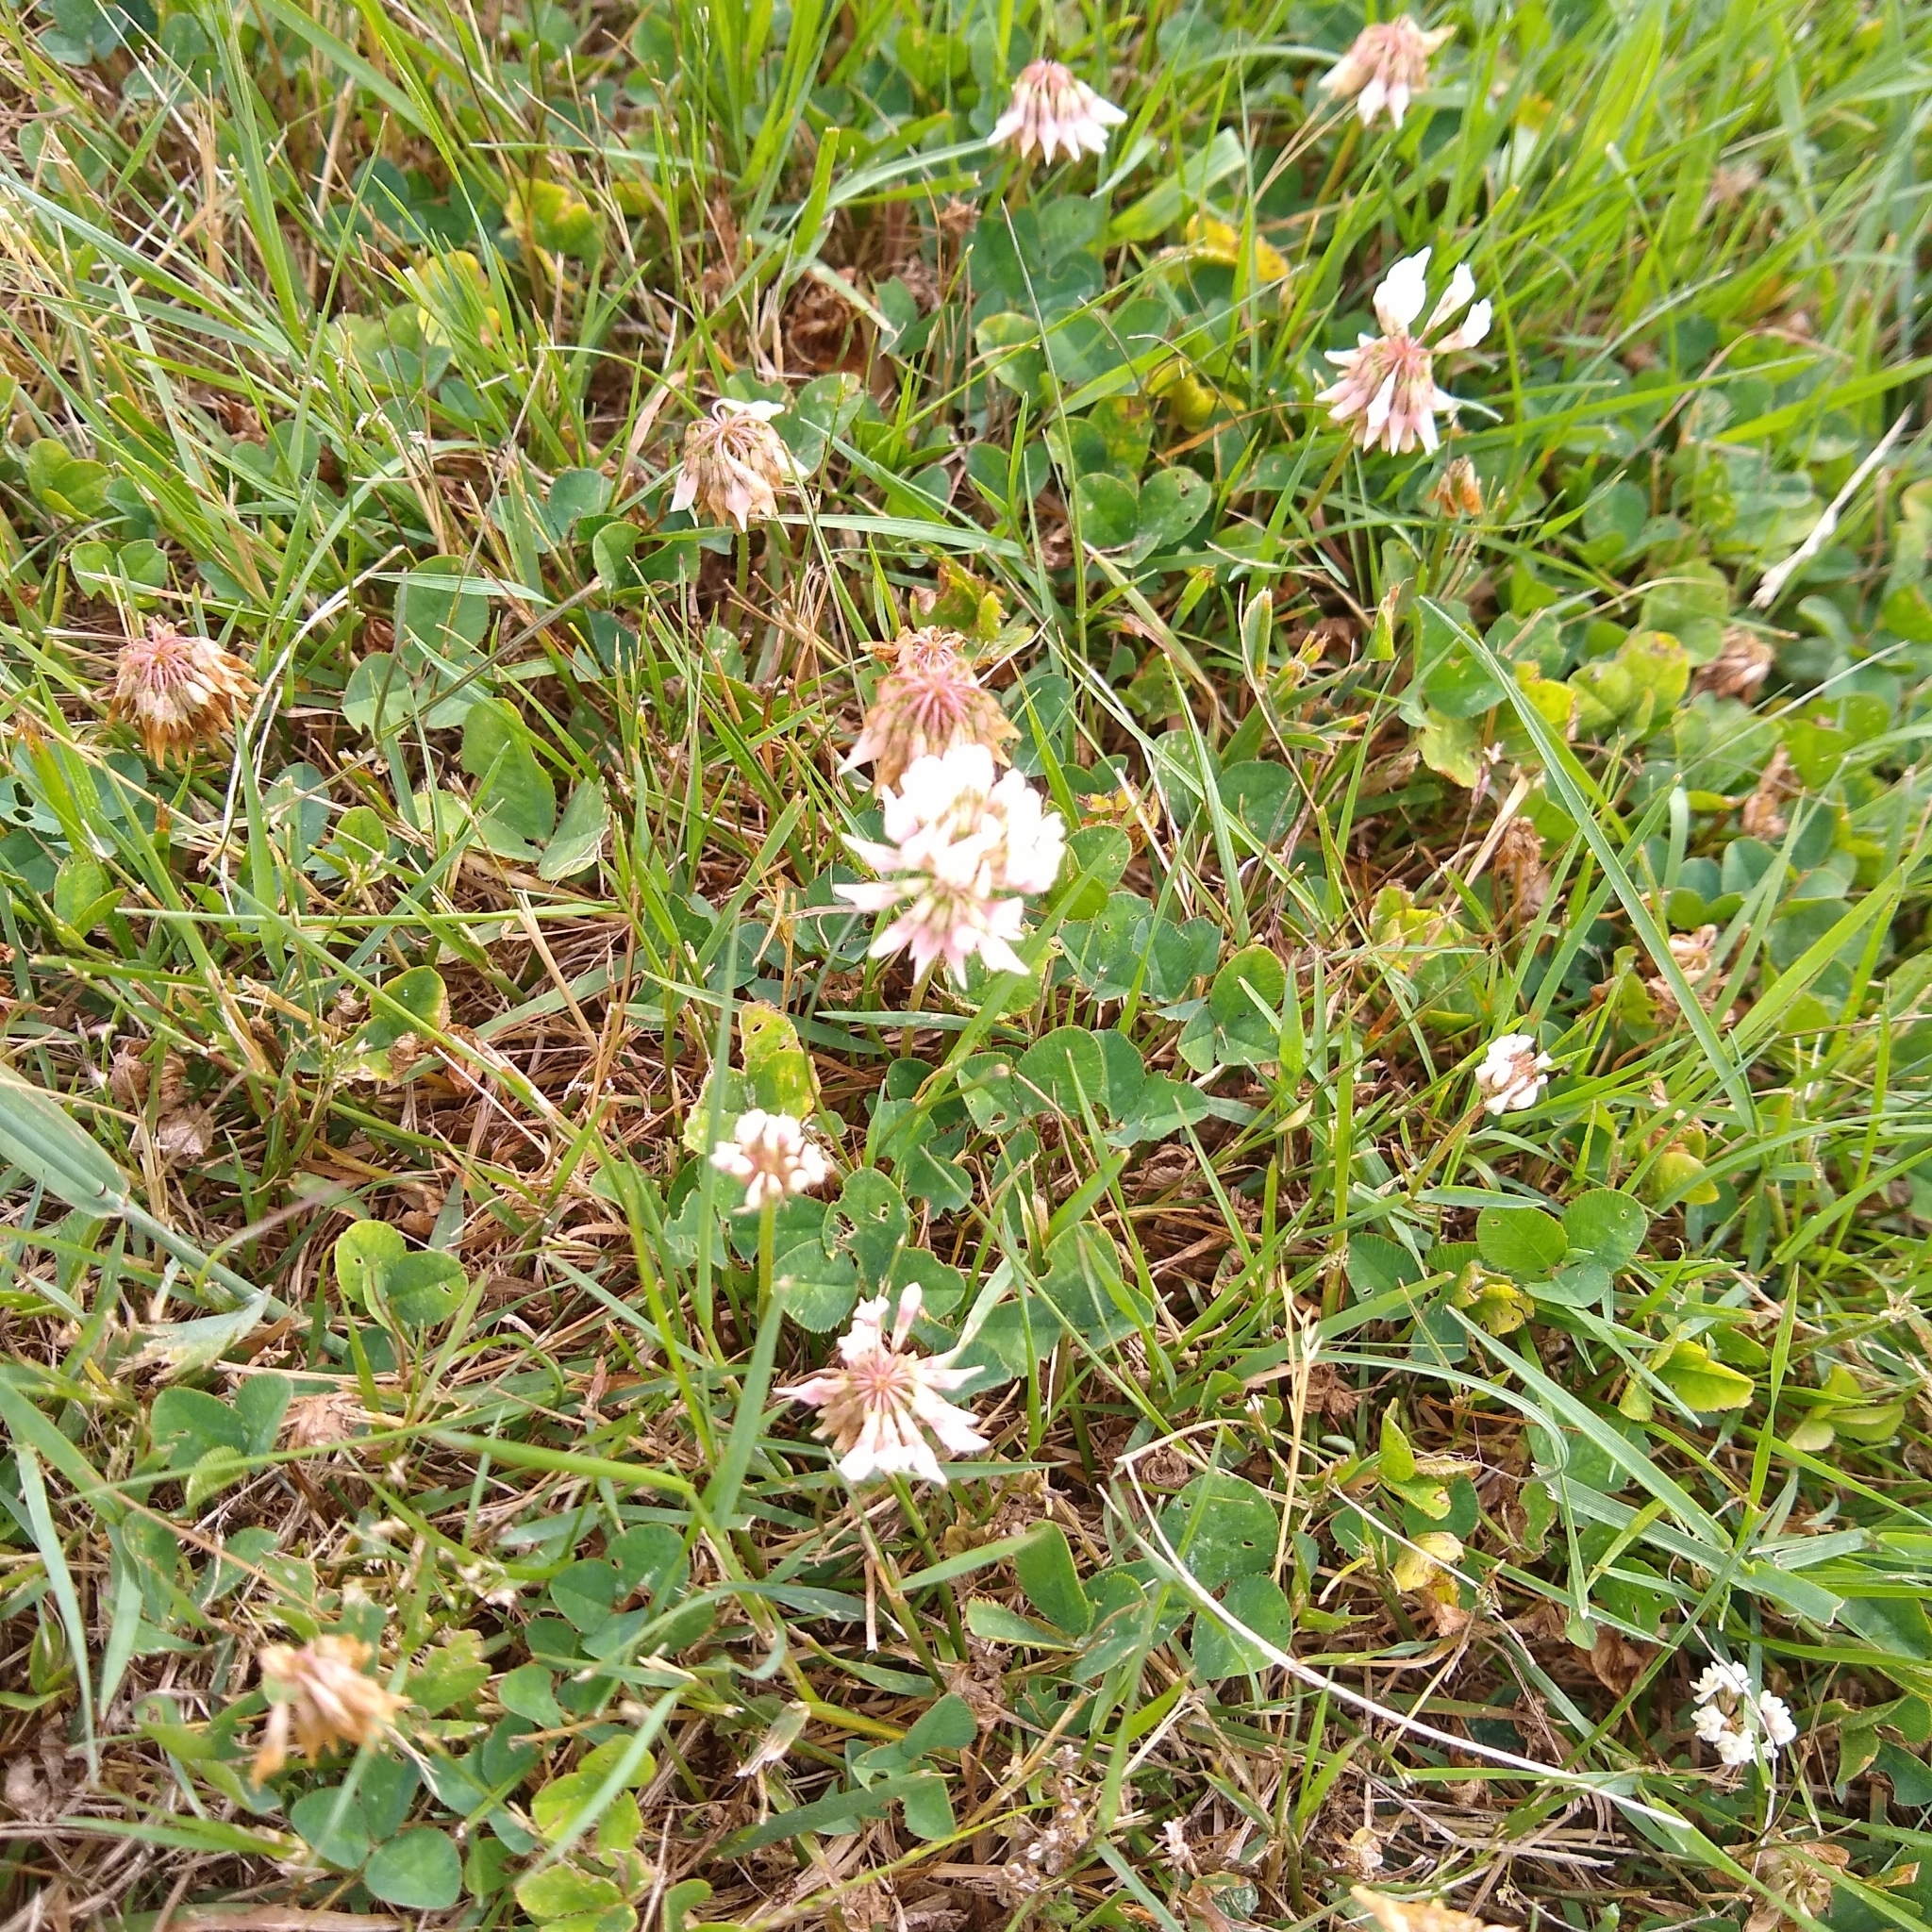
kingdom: Plantae
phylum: Tracheophyta
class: Magnoliopsida
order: Fabales
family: Fabaceae
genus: Trifolium
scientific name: Trifolium repens
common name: White clover
